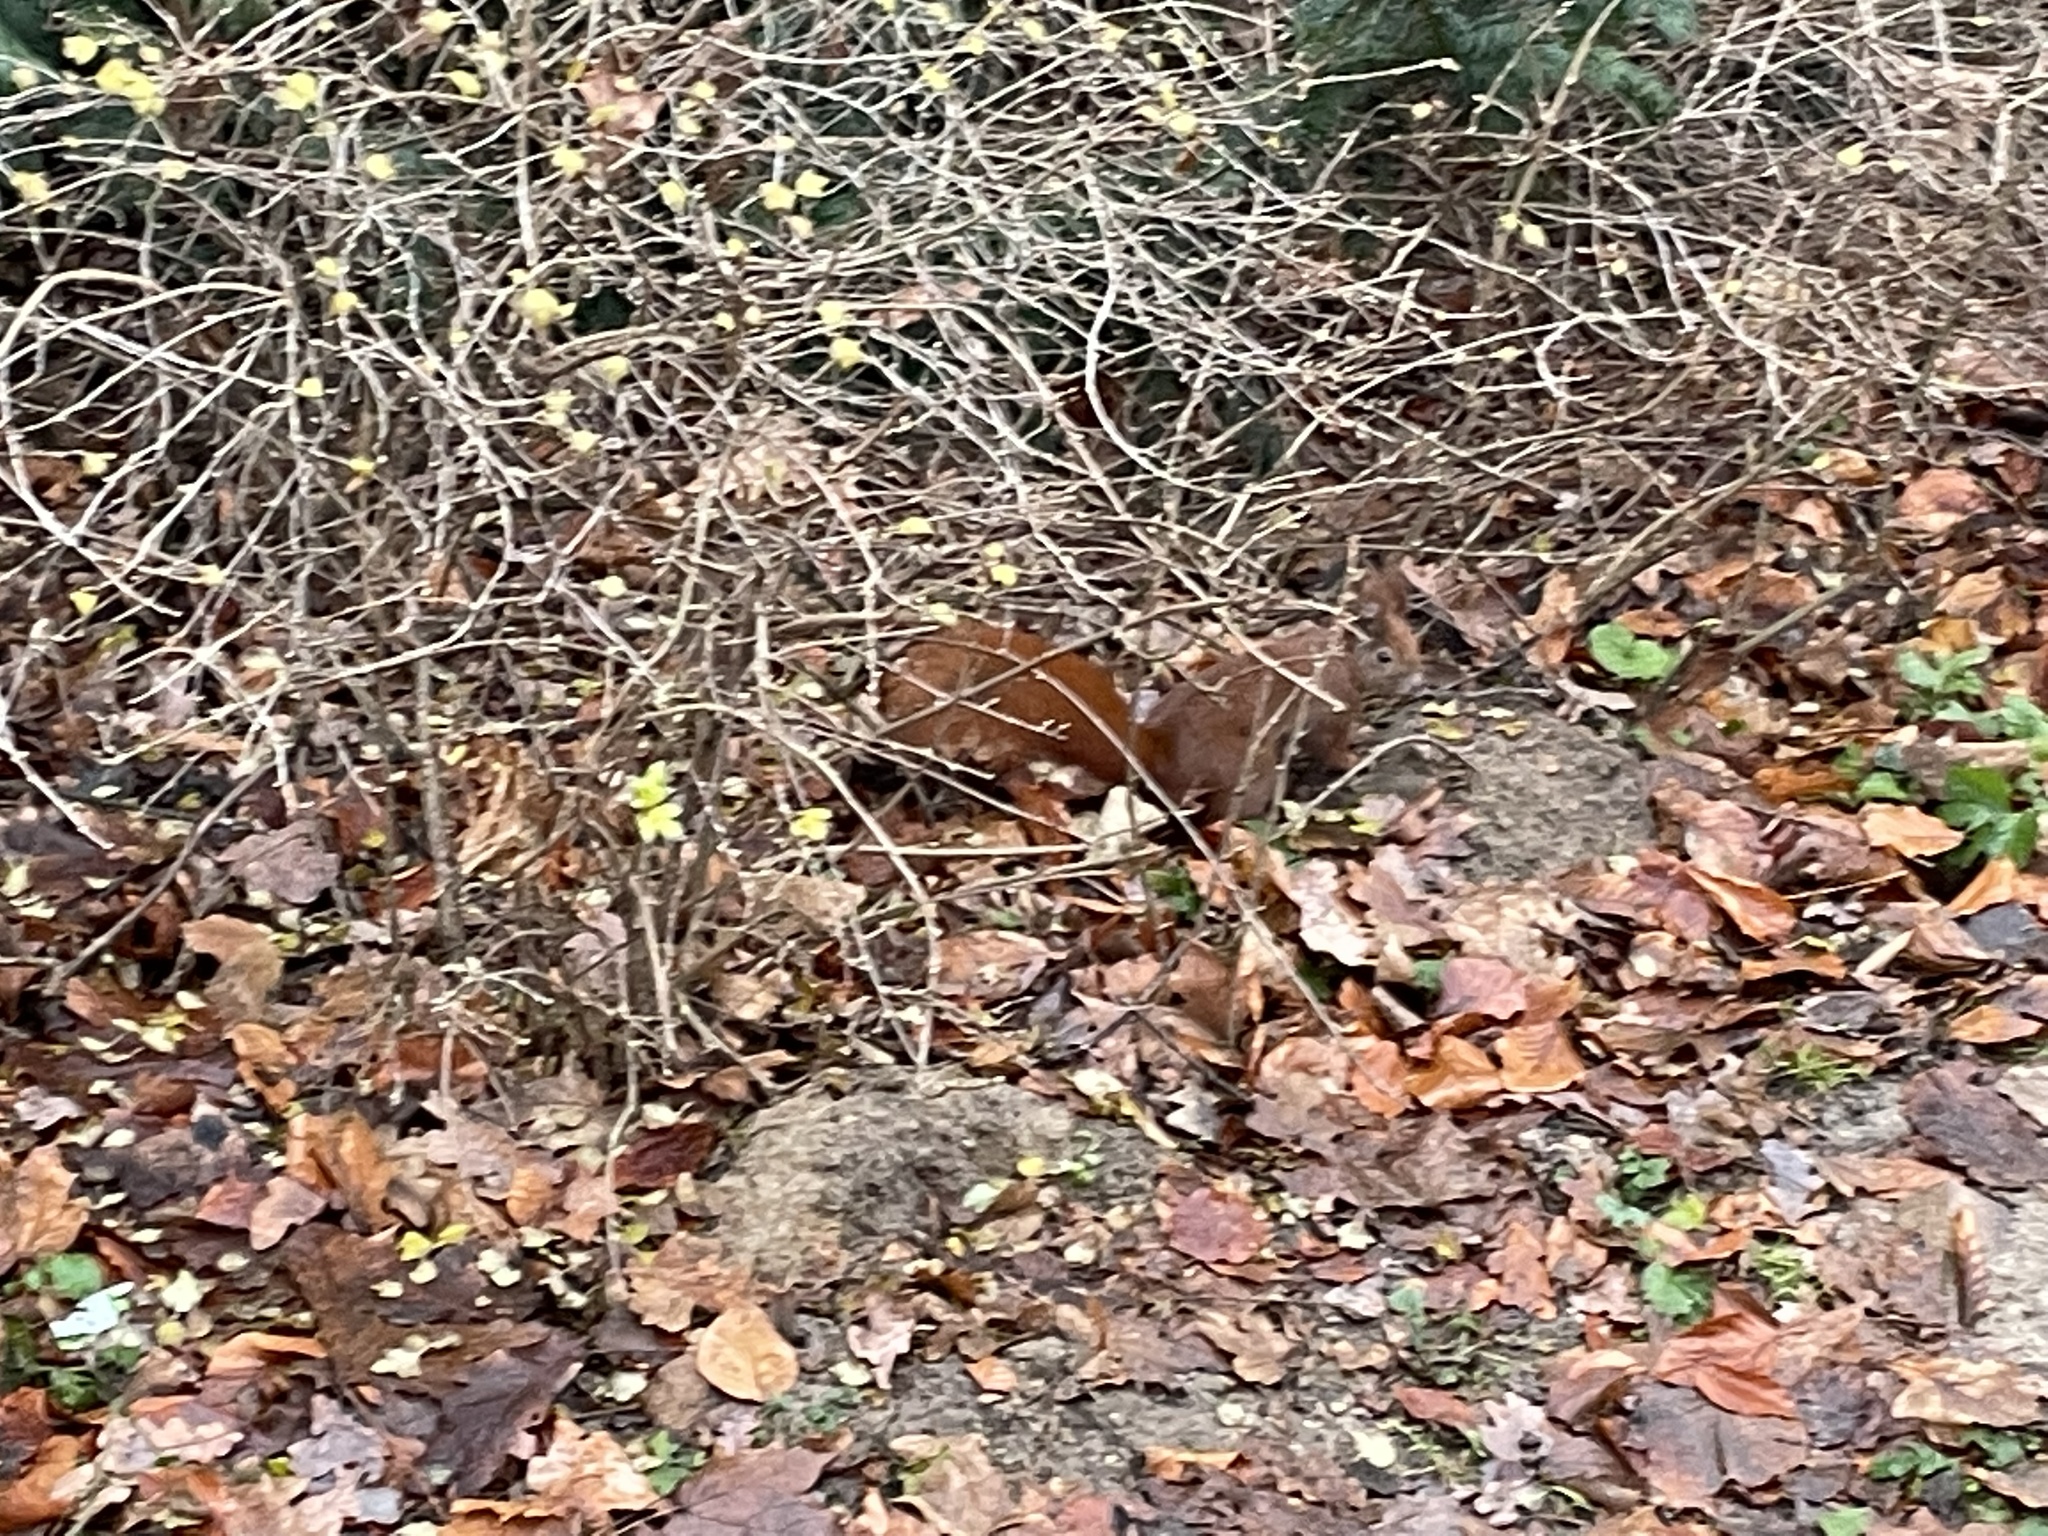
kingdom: Animalia
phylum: Chordata
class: Mammalia
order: Rodentia
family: Sciuridae
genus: Sciurus
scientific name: Sciurus vulgaris
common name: Eurasian red squirrel
